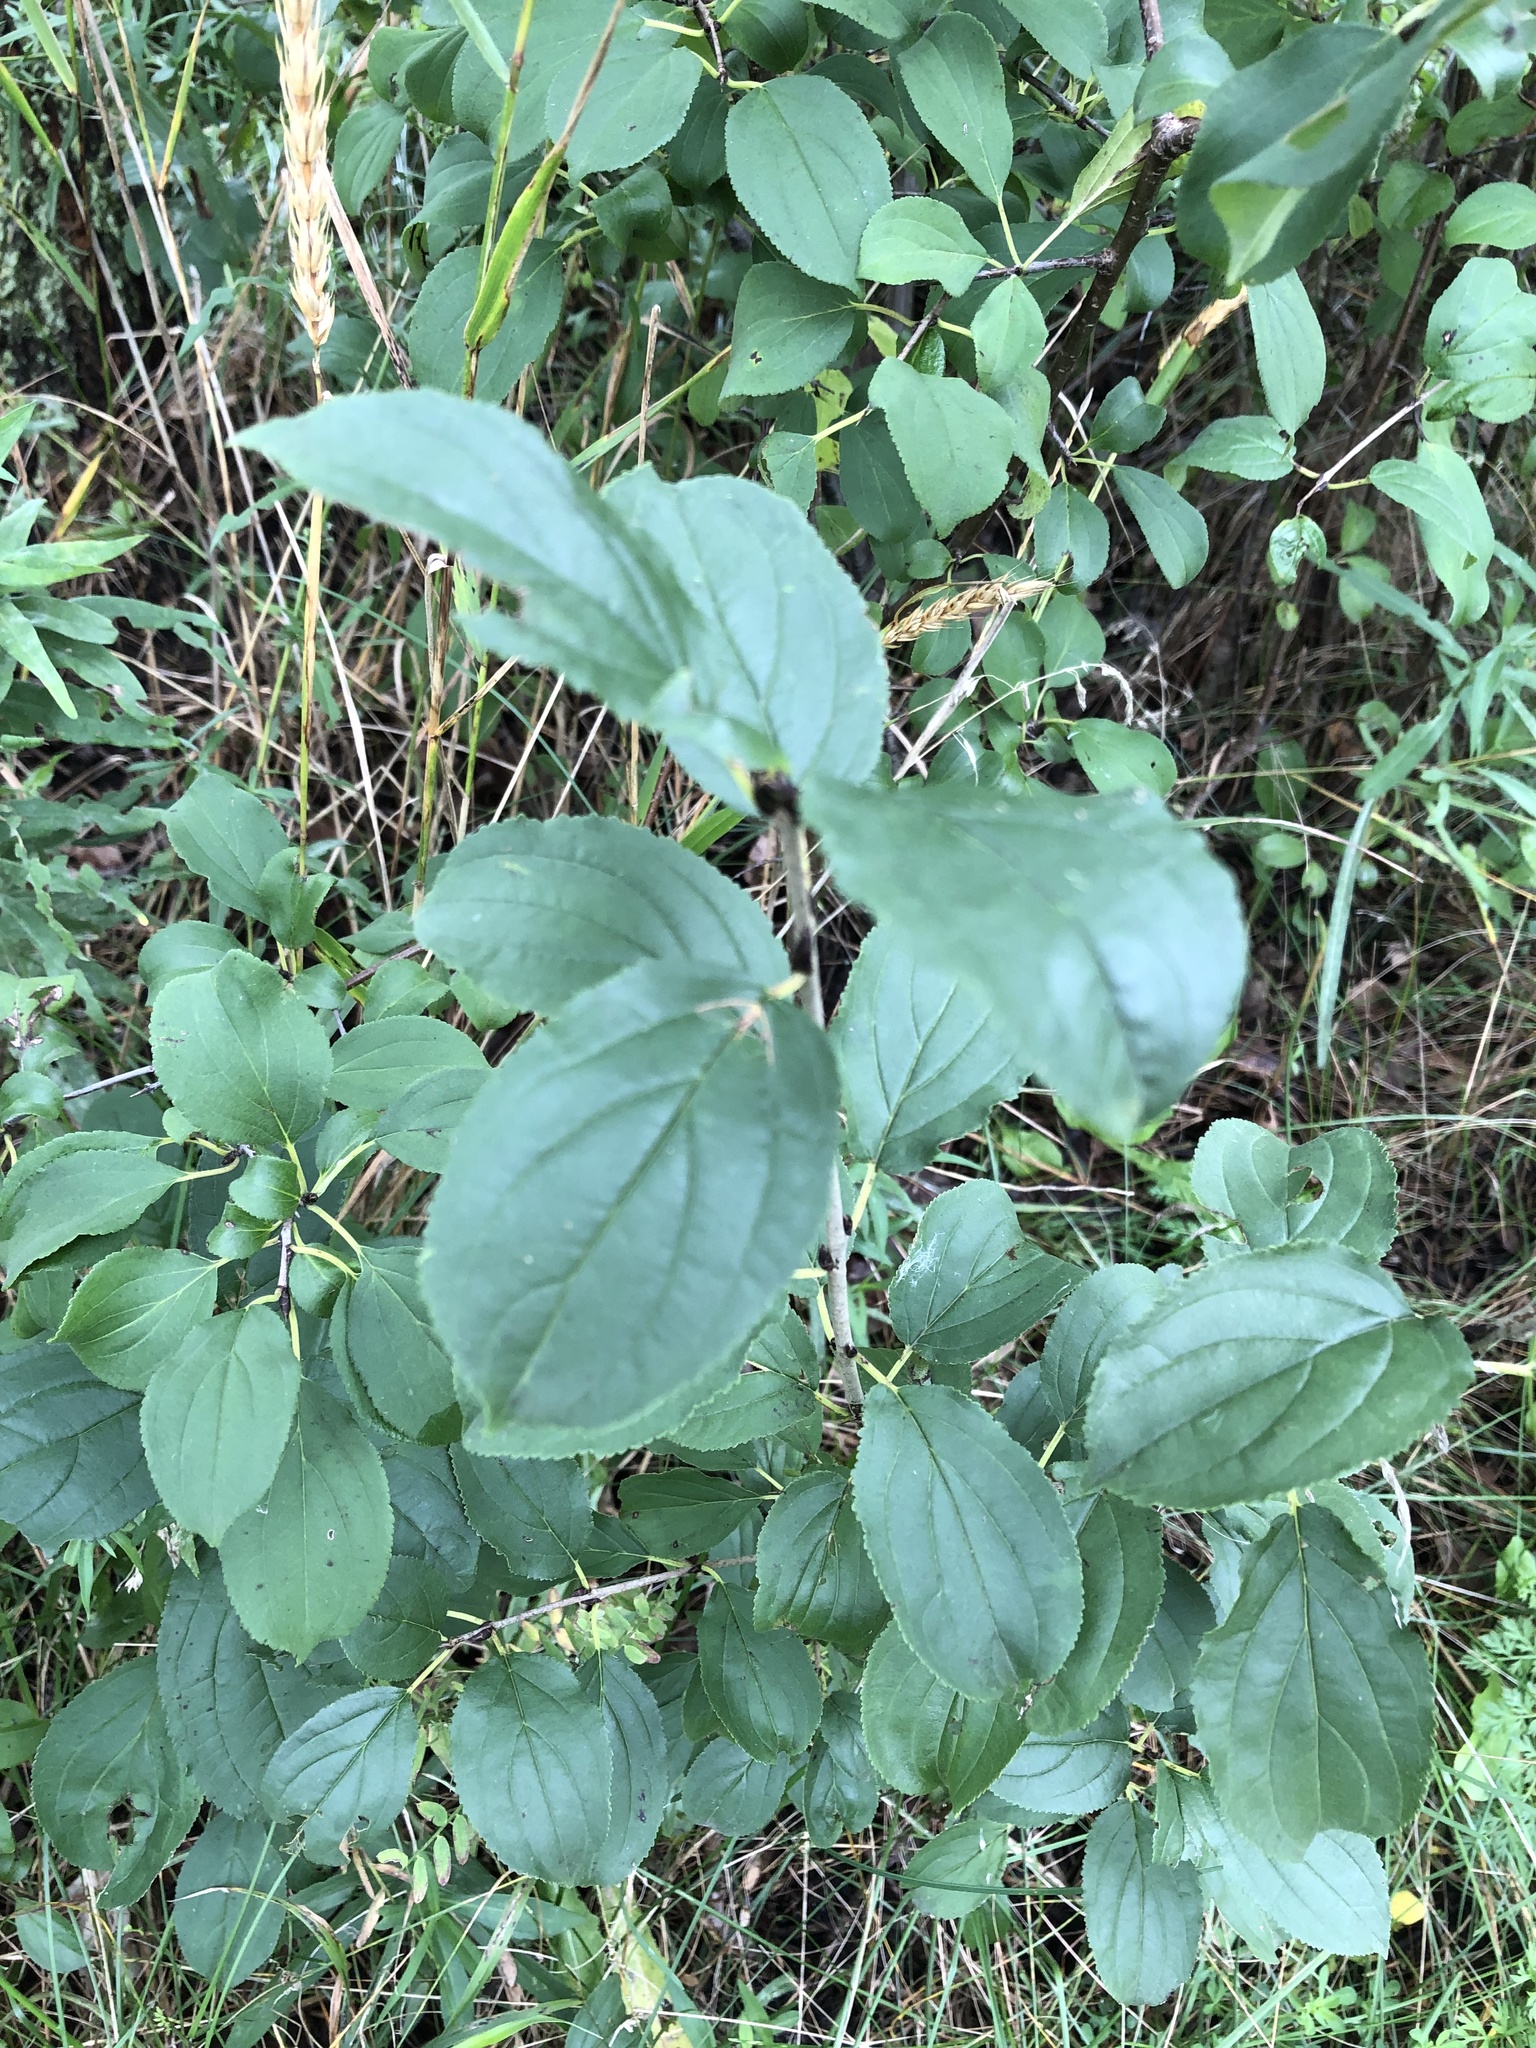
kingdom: Plantae
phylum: Tracheophyta
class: Magnoliopsida
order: Rosales
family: Rhamnaceae
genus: Rhamnus
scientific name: Rhamnus cathartica
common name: Common buckthorn
